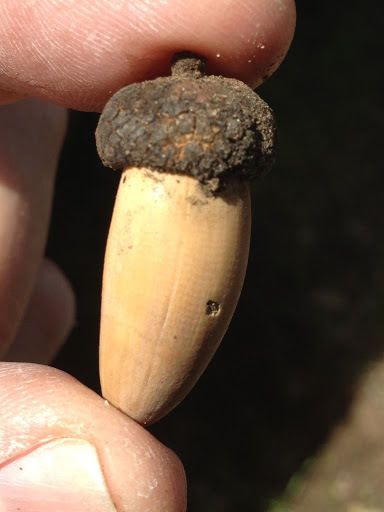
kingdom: Plantae
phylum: Tracheophyta
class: Magnoliopsida
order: Fagales
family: Fagaceae
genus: Quercus
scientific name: Quercus chrysolepis
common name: Canyon live oak
